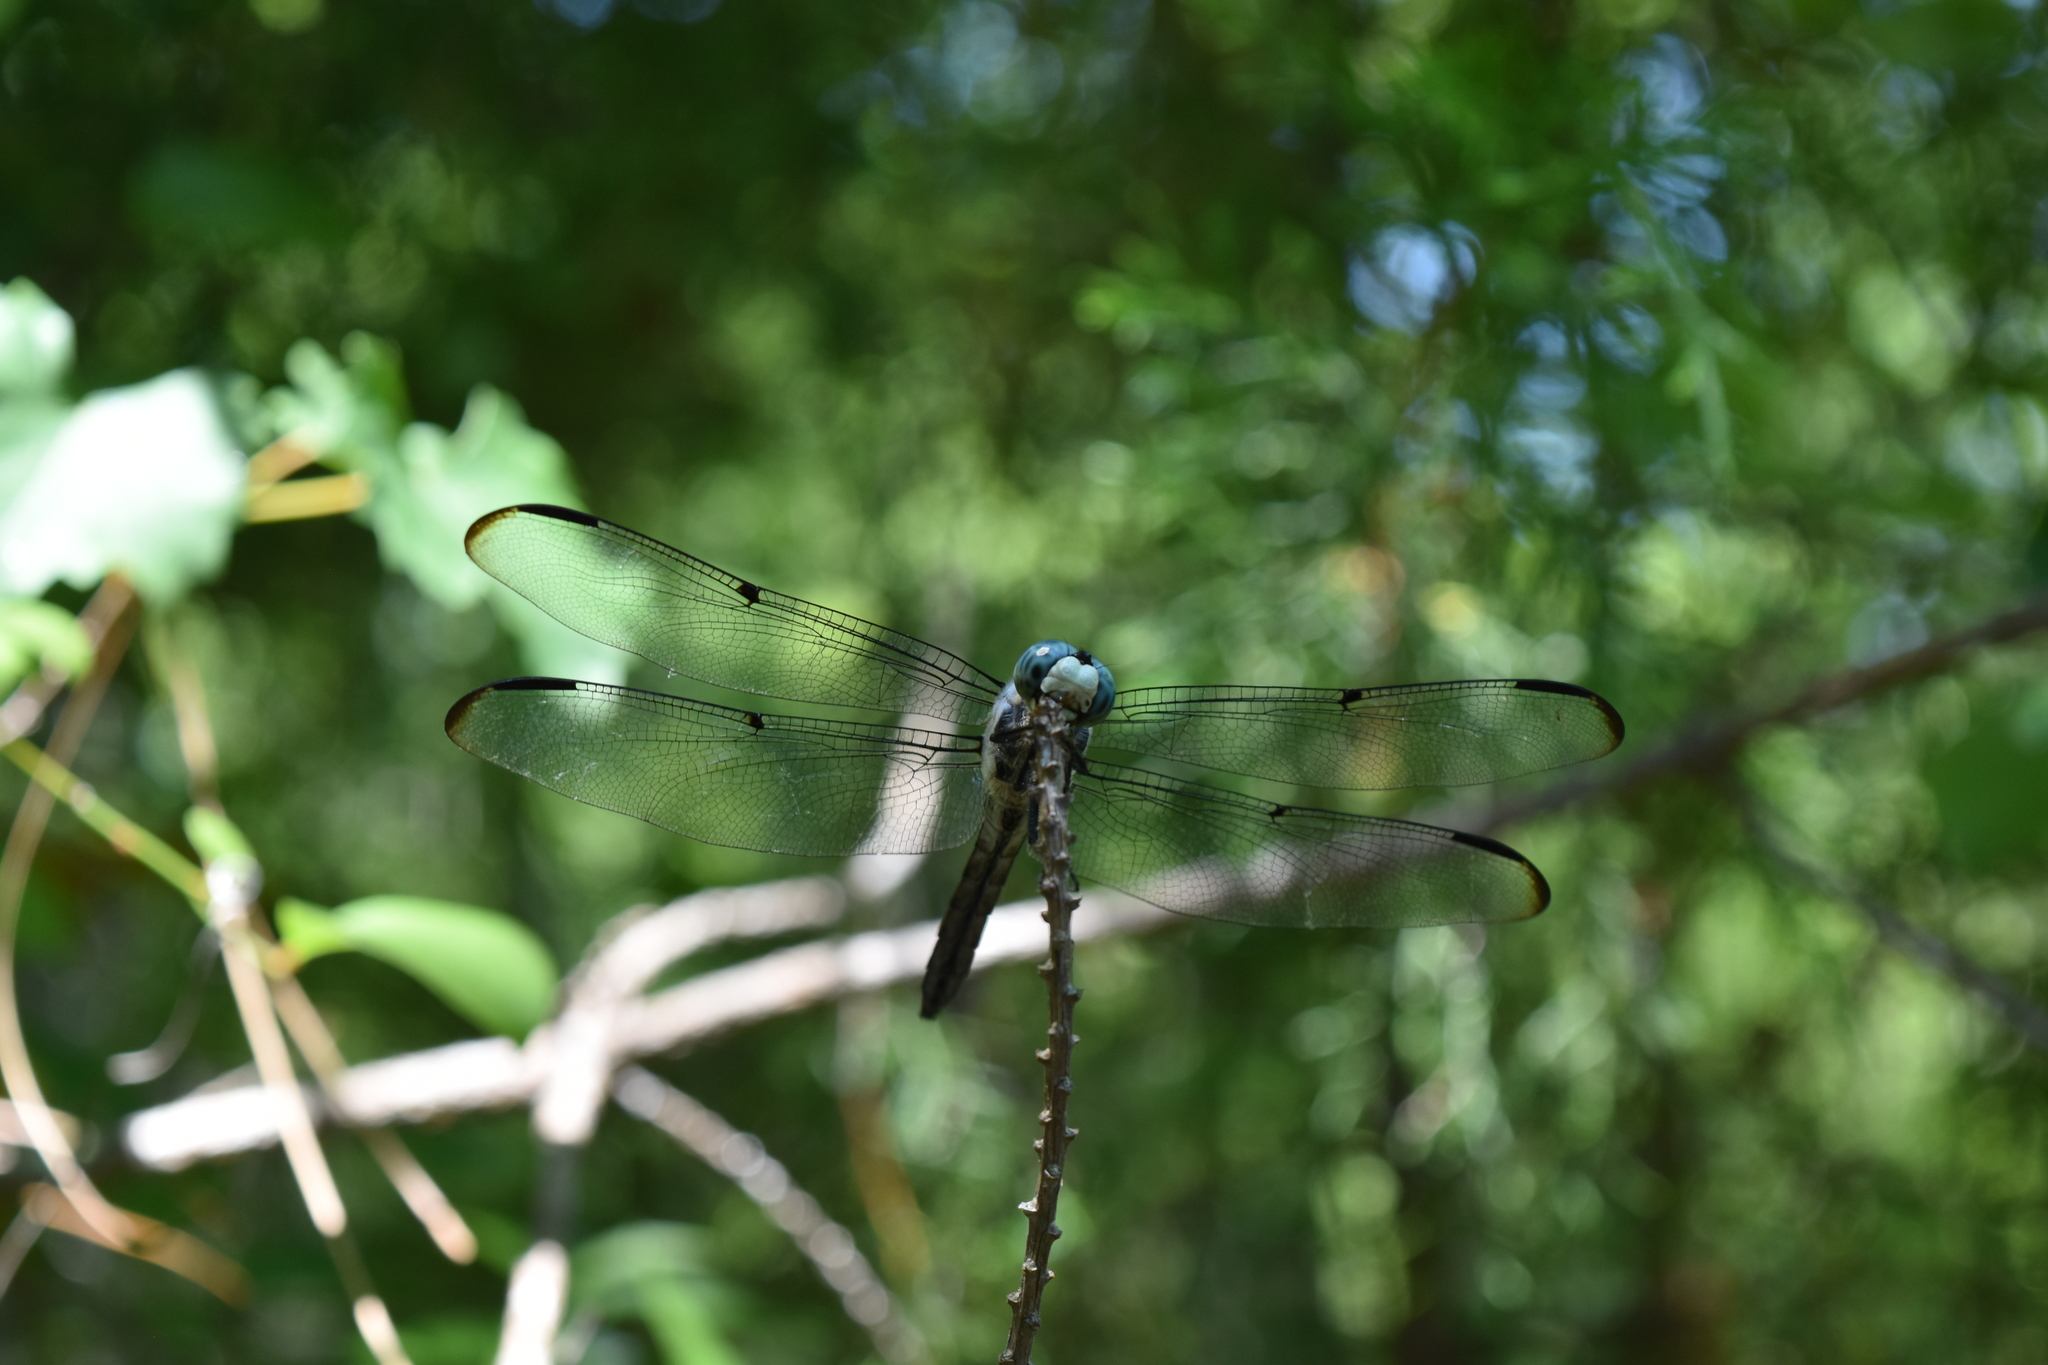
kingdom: Animalia
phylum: Arthropoda
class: Insecta
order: Odonata
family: Libellulidae
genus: Libellula
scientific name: Libellula vibrans
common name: Great blue skimmer
